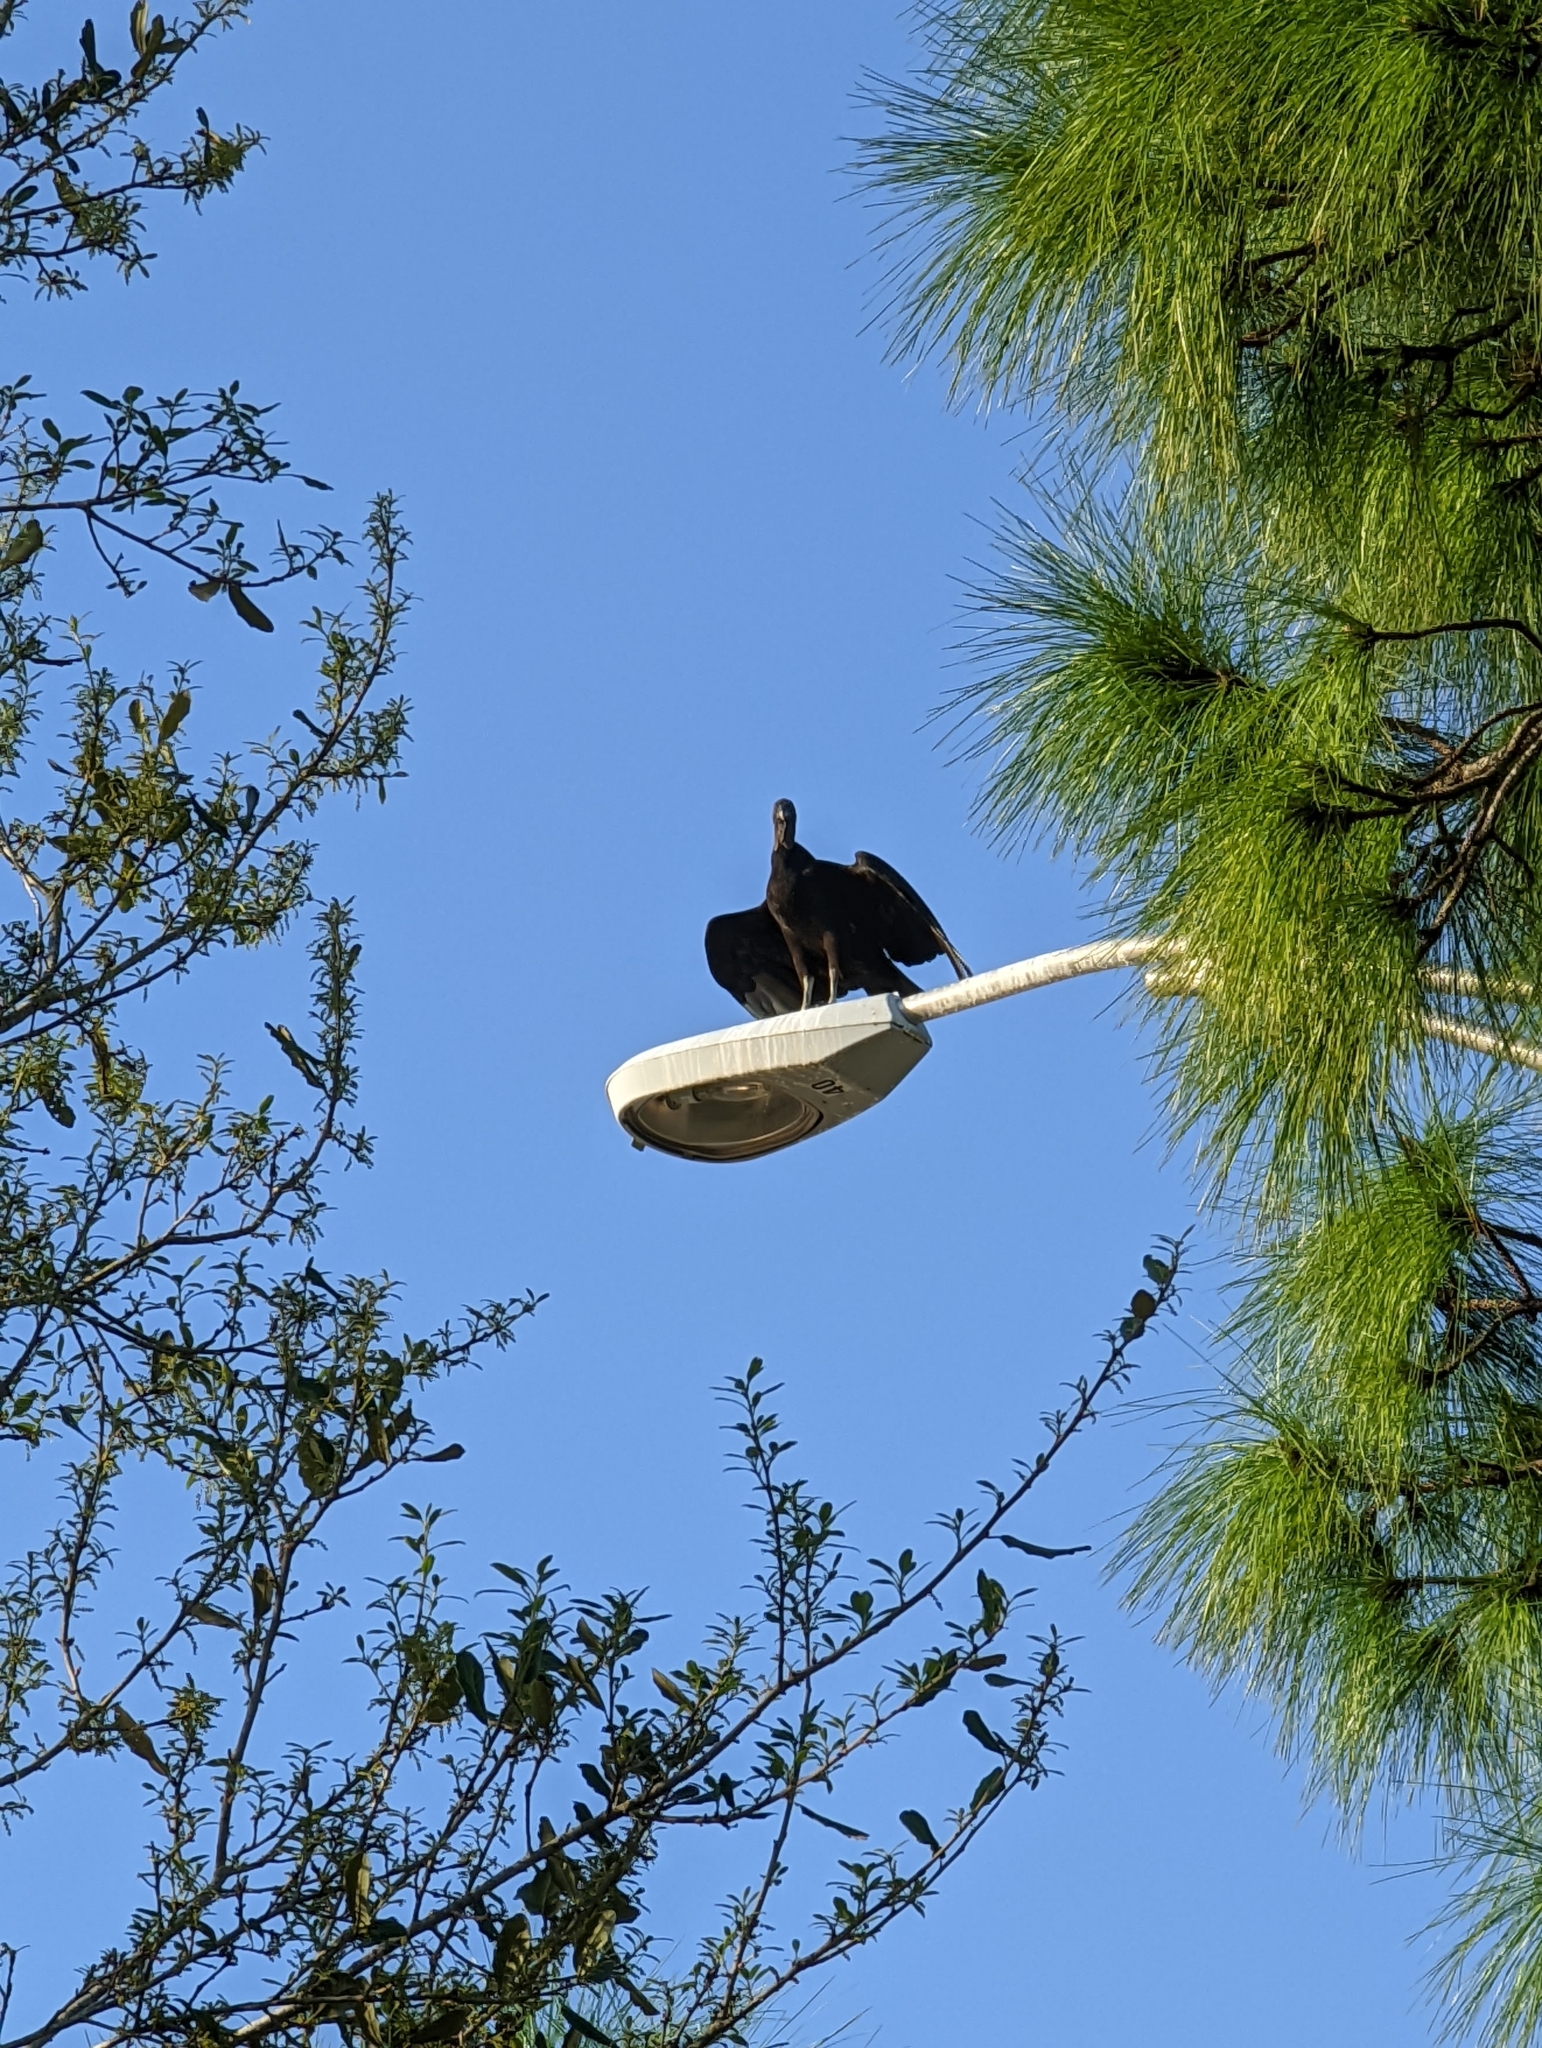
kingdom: Animalia
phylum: Chordata
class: Aves
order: Accipitriformes
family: Cathartidae
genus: Coragyps
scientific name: Coragyps atratus
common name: Black vulture
